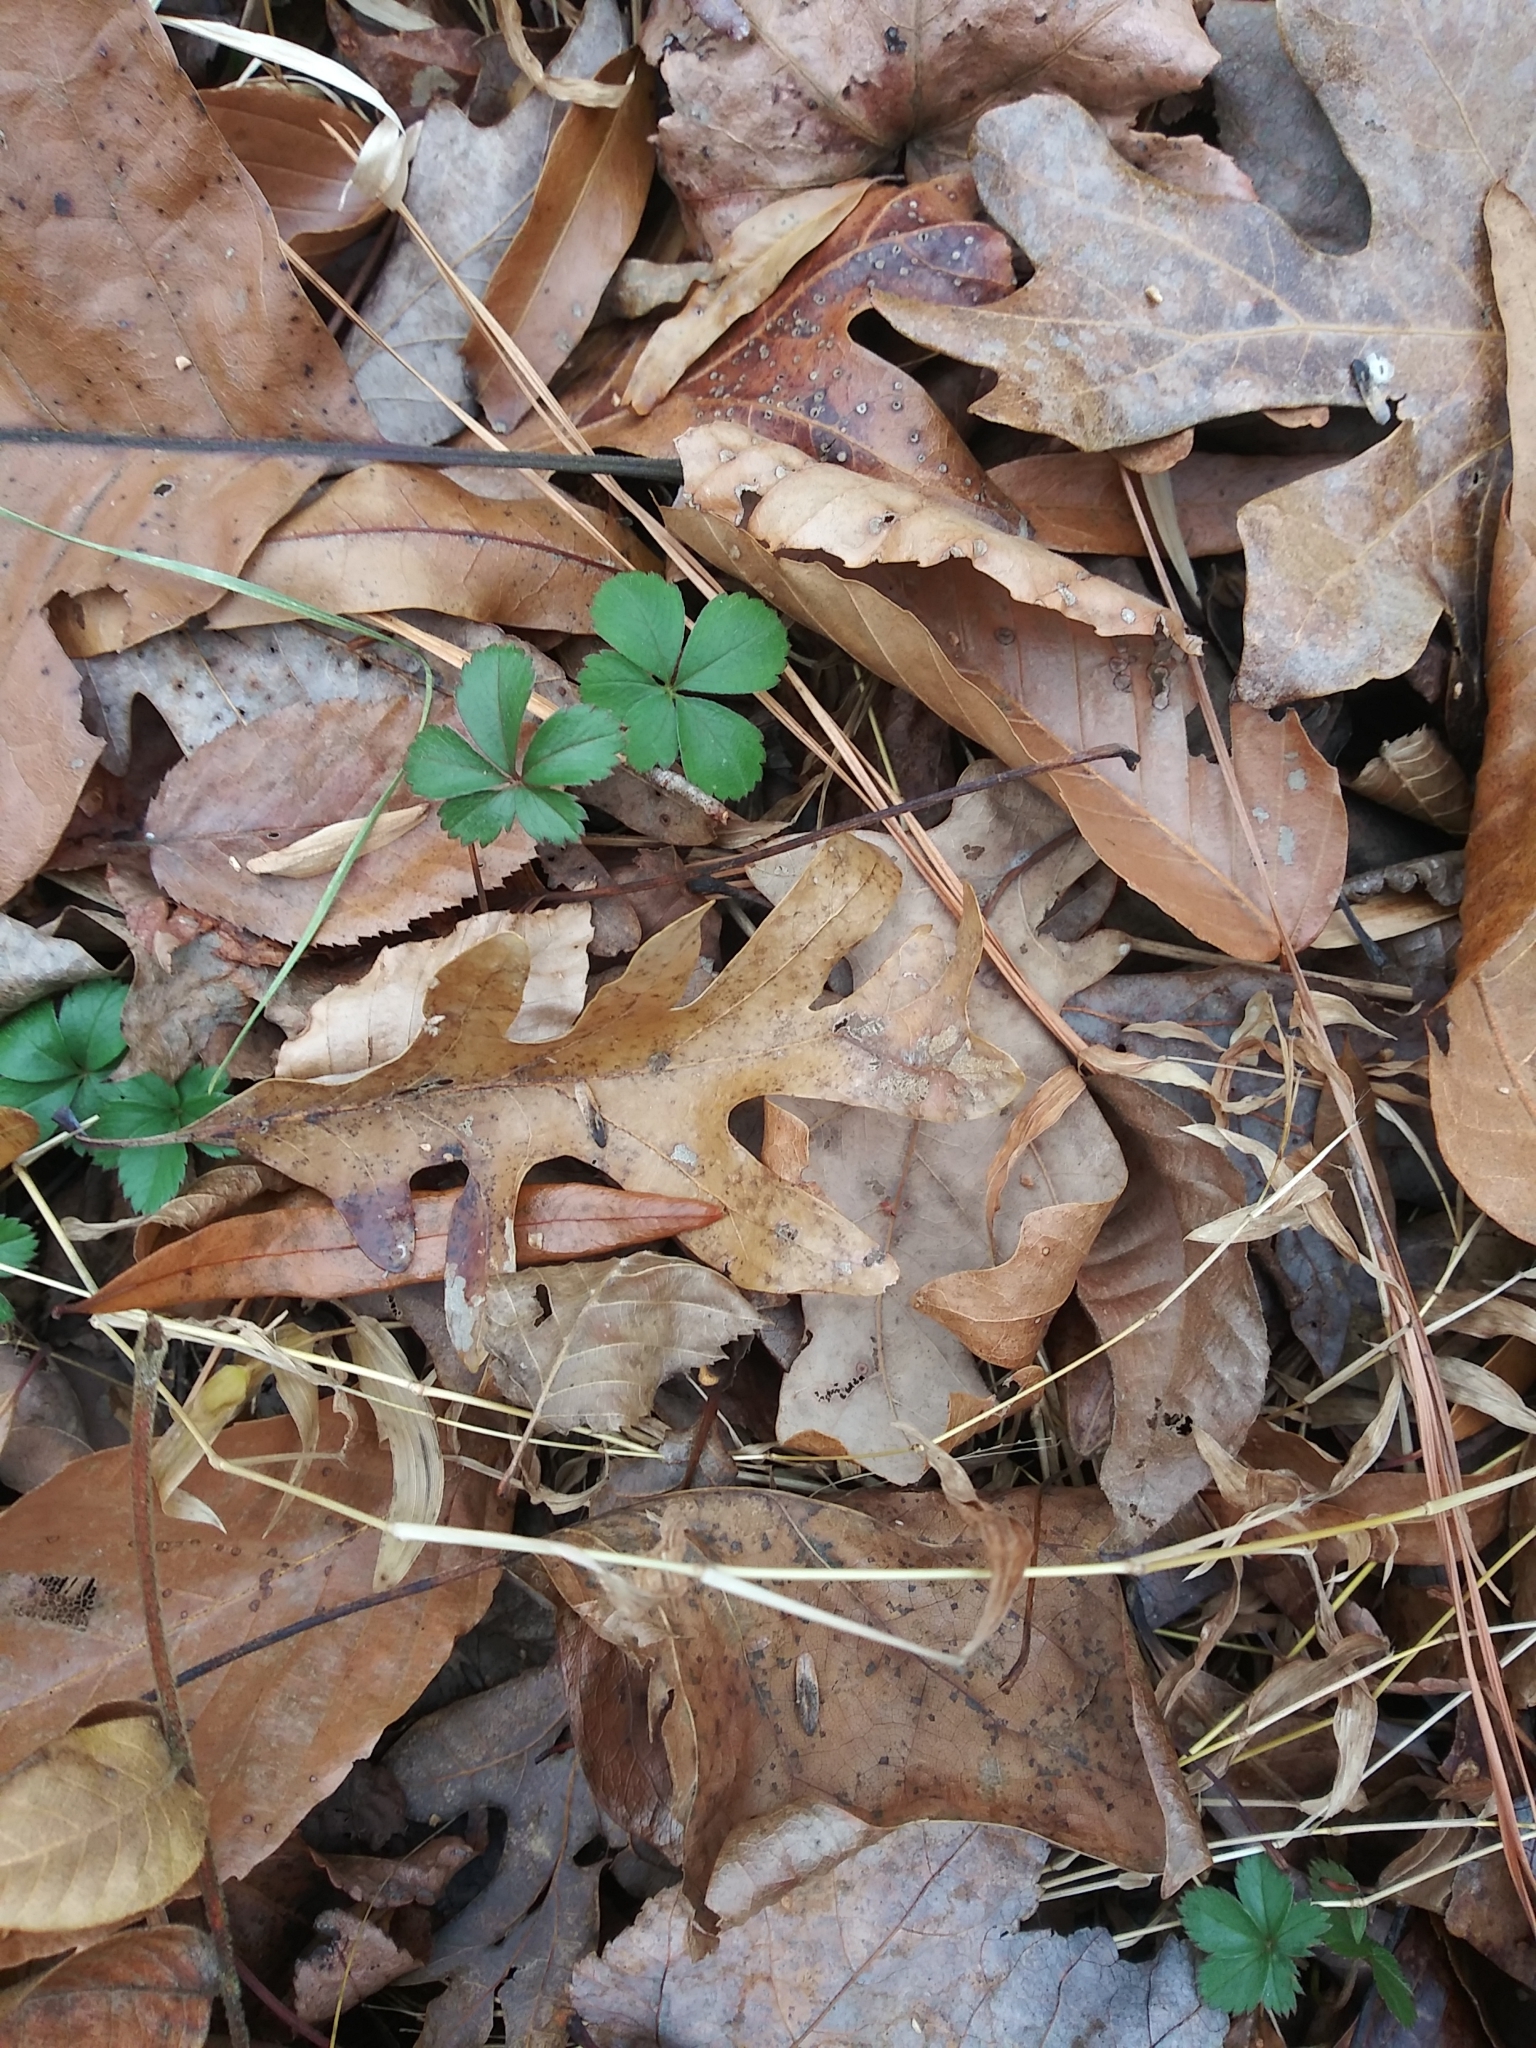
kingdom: Plantae
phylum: Tracheophyta
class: Magnoliopsida
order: Rosales
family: Rosaceae
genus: Potentilla
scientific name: Potentilla canadensis
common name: Canada cinquefoil
